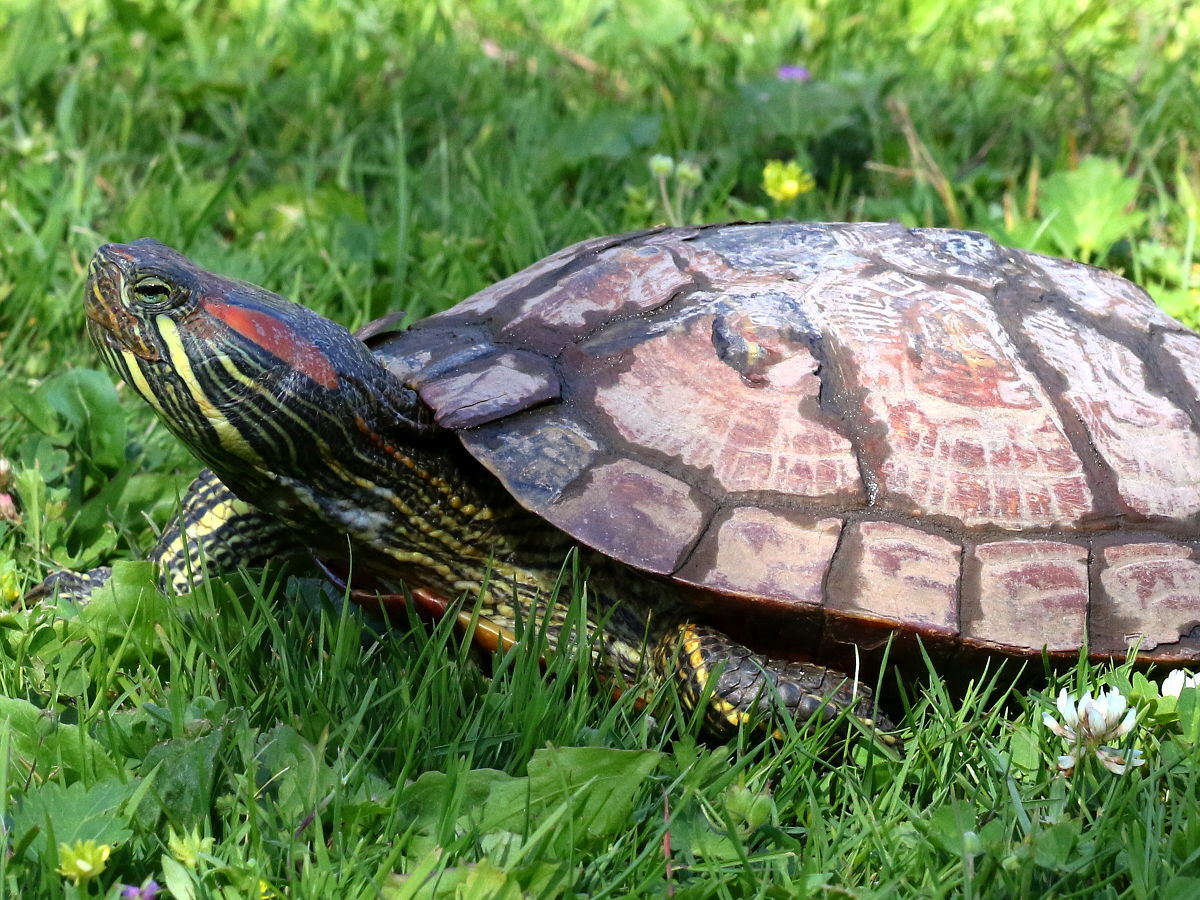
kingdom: Animalia
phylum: Chordata
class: Testudines
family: Emydidae
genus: Trachemys
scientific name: Trachemys scripta
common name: Slider
